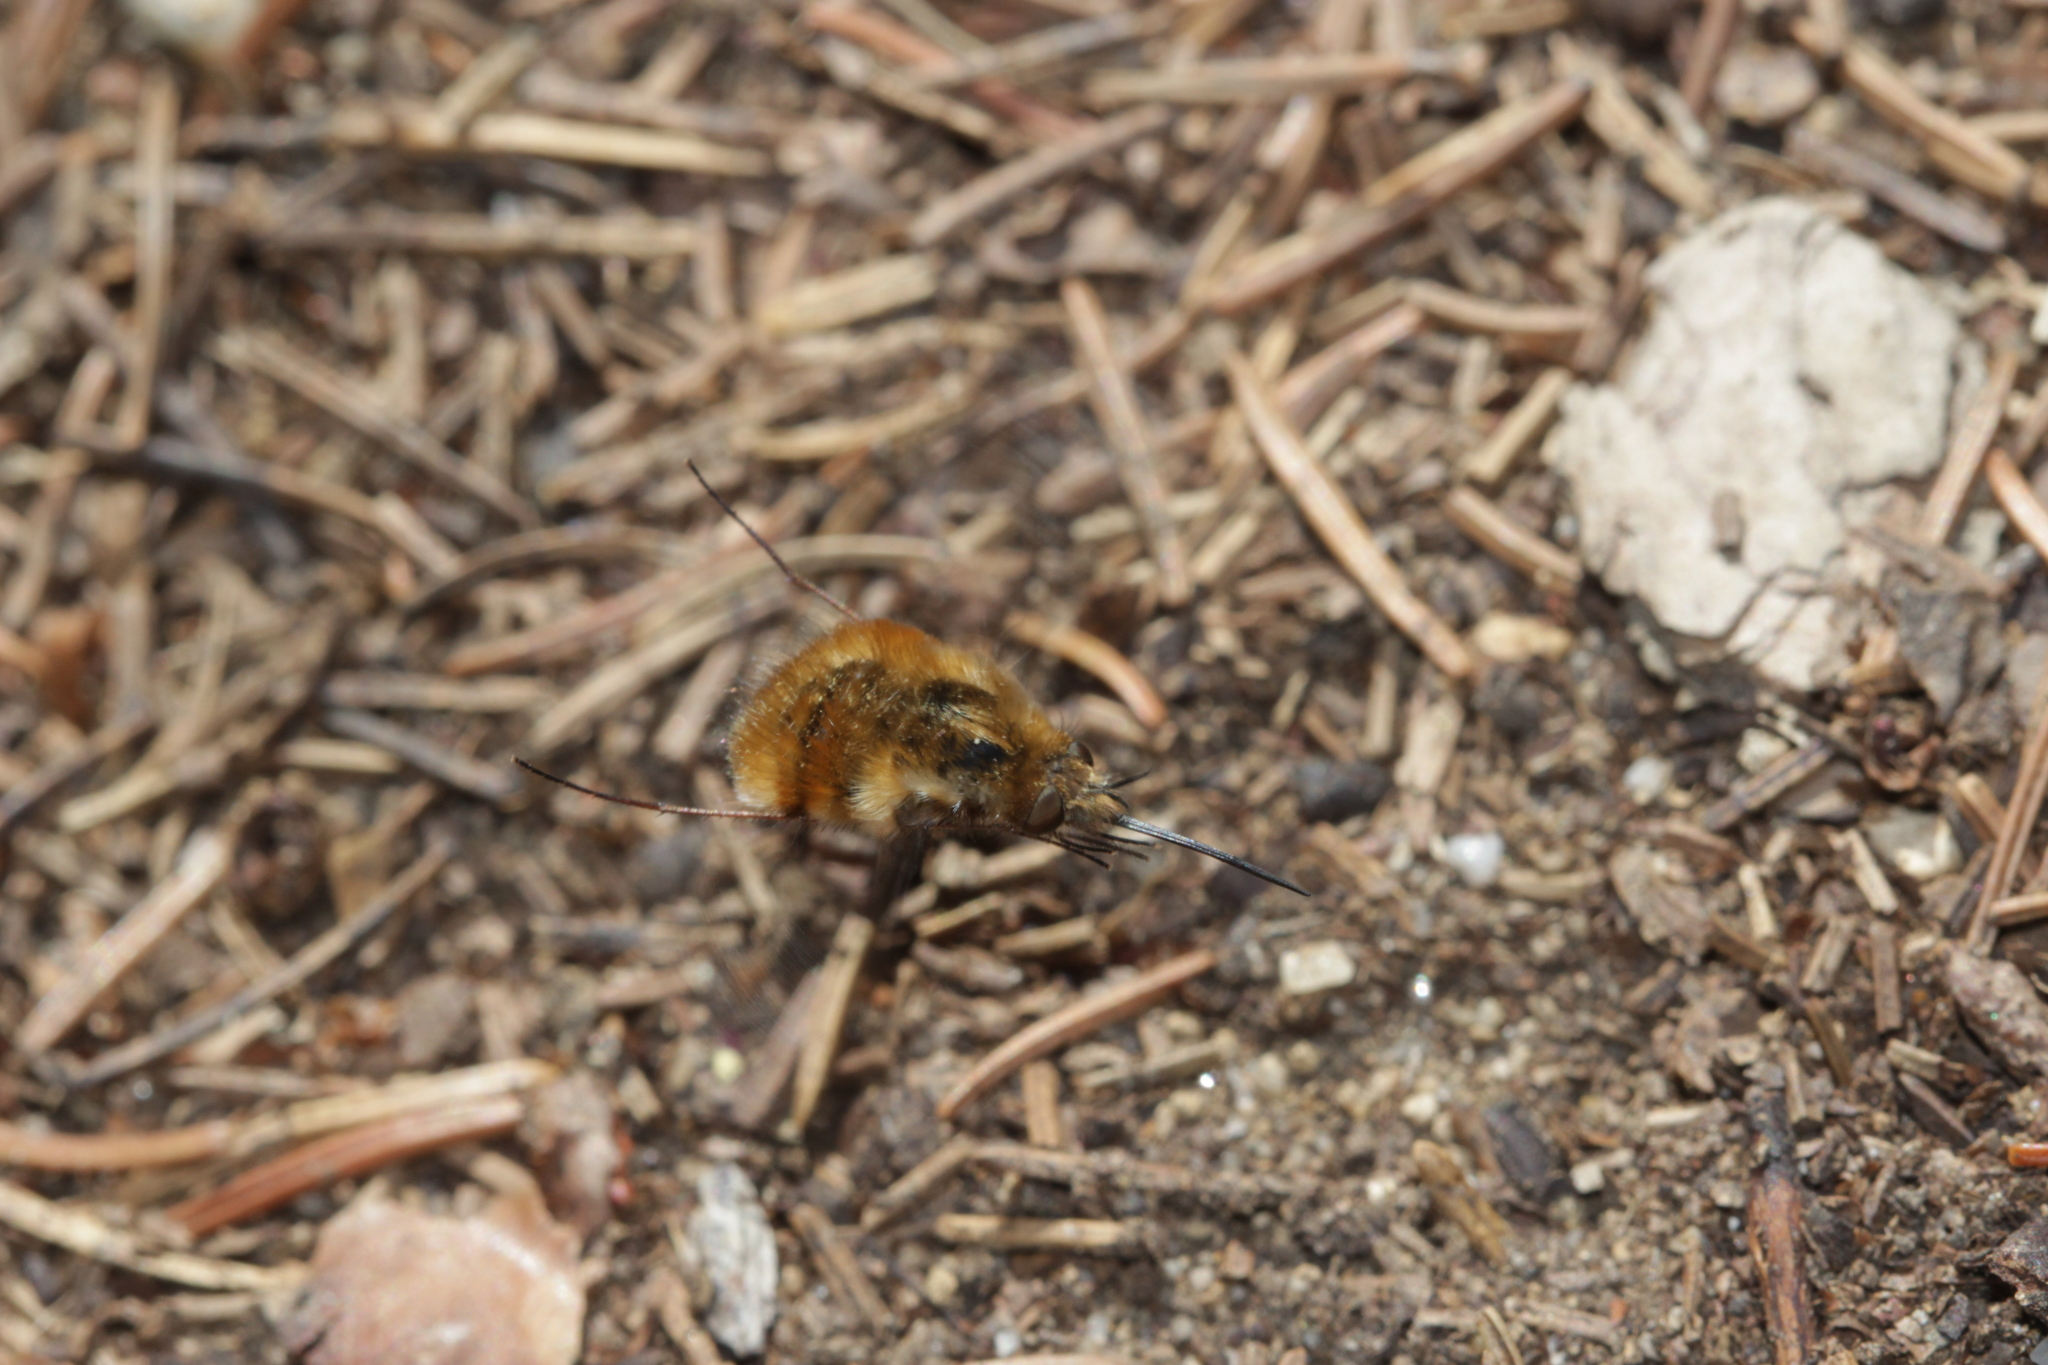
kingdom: Animalia
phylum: Arthropoda
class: Insecta
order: Diptera
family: Bombyliidae
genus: Bombylius
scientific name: Bombylius major
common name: Bee fly
